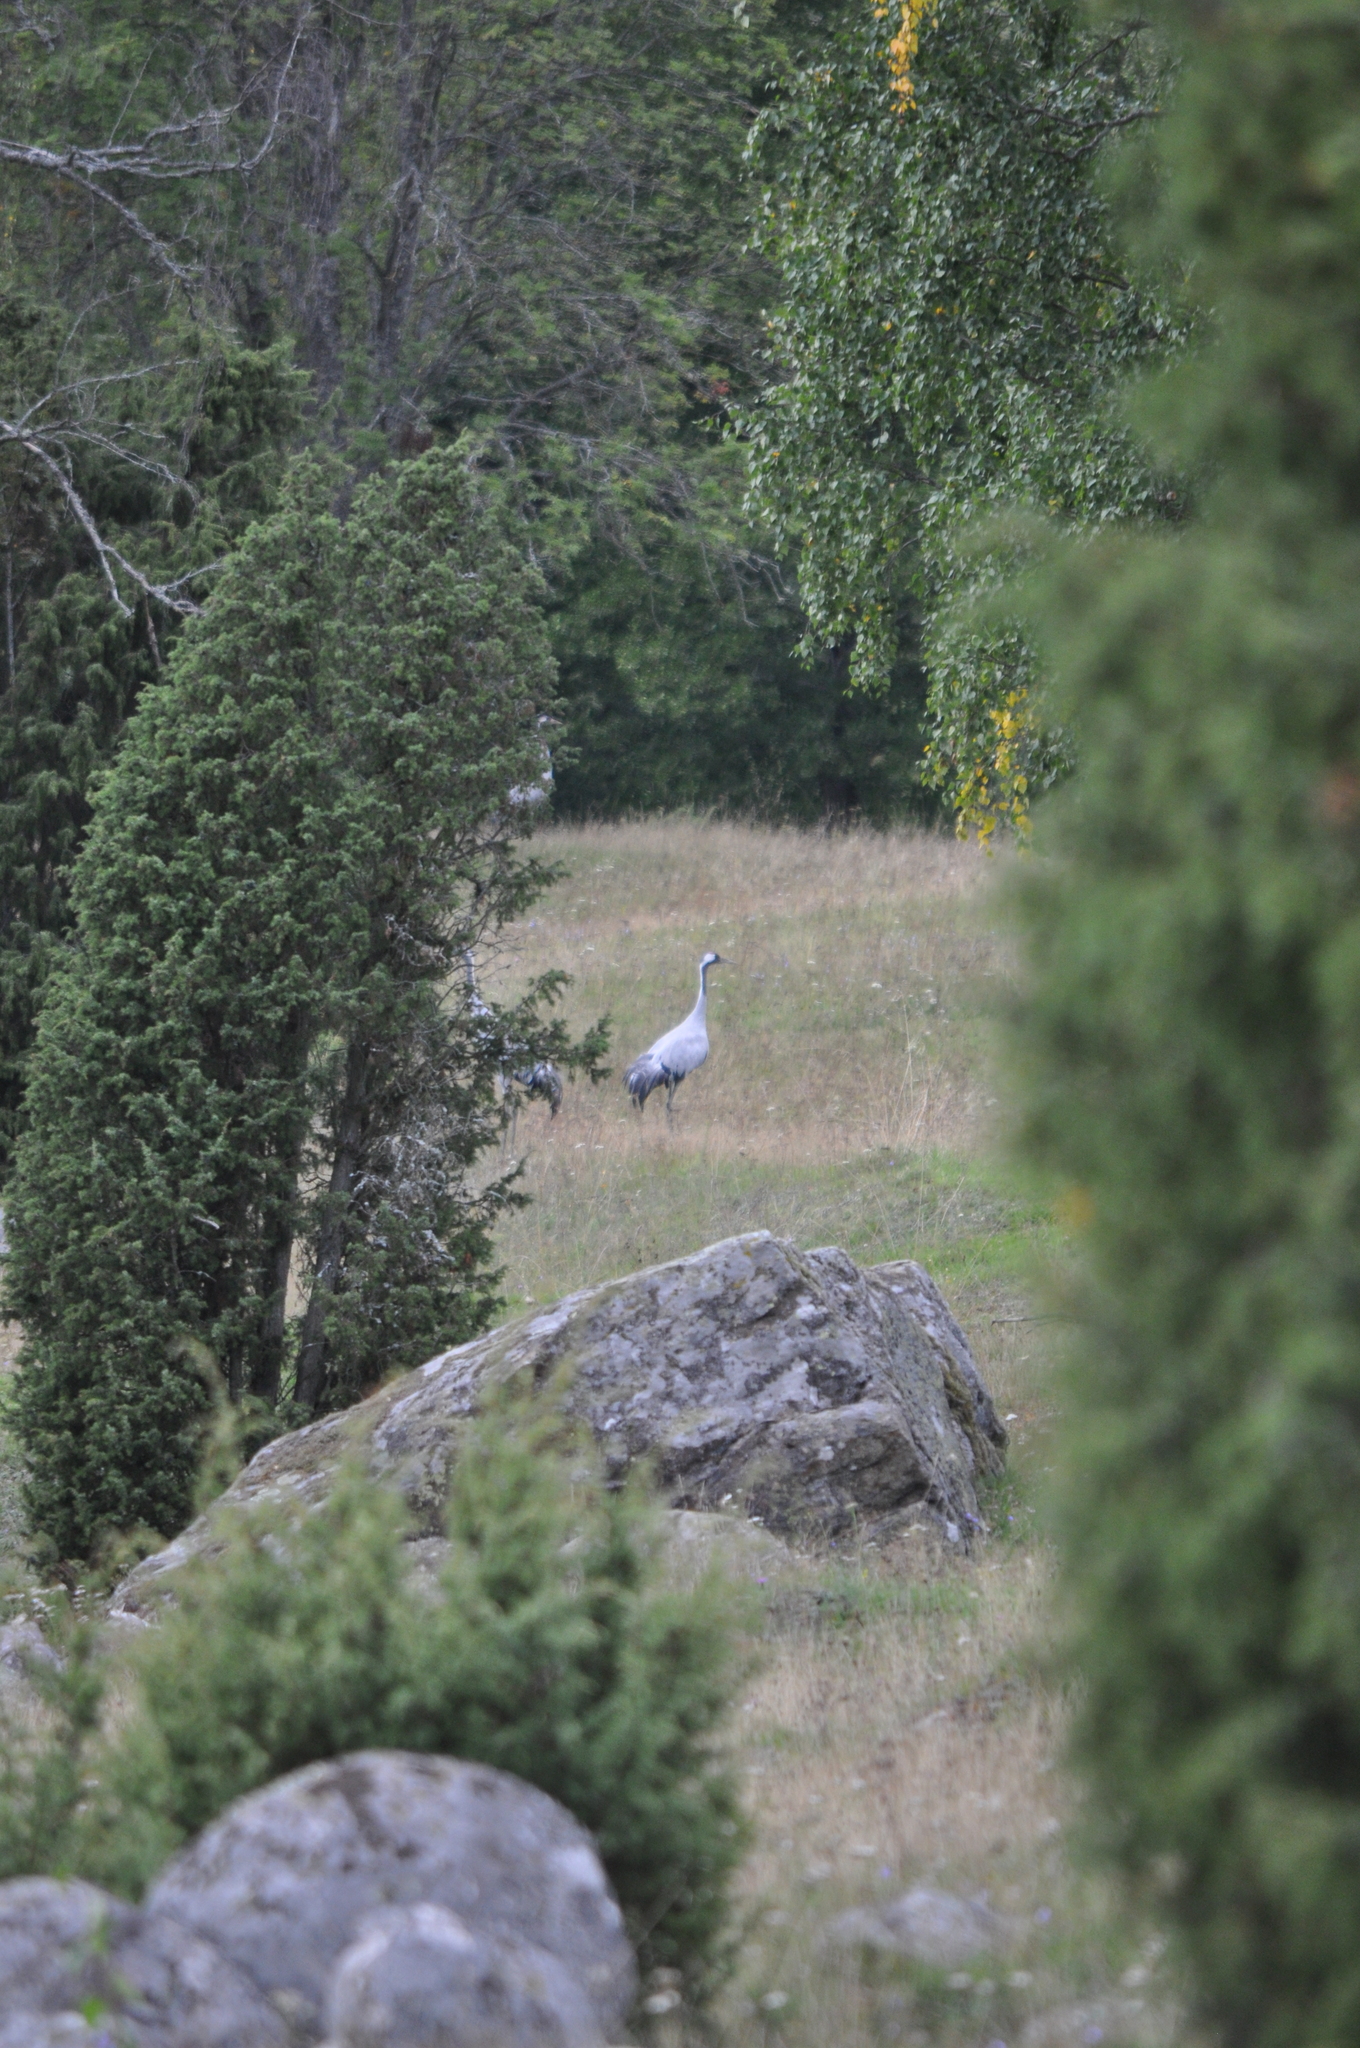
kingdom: Animalia
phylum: Chordata
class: Aves
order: Gruiformes
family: Gruidae
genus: Grus
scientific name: Grus grus
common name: Common crane
